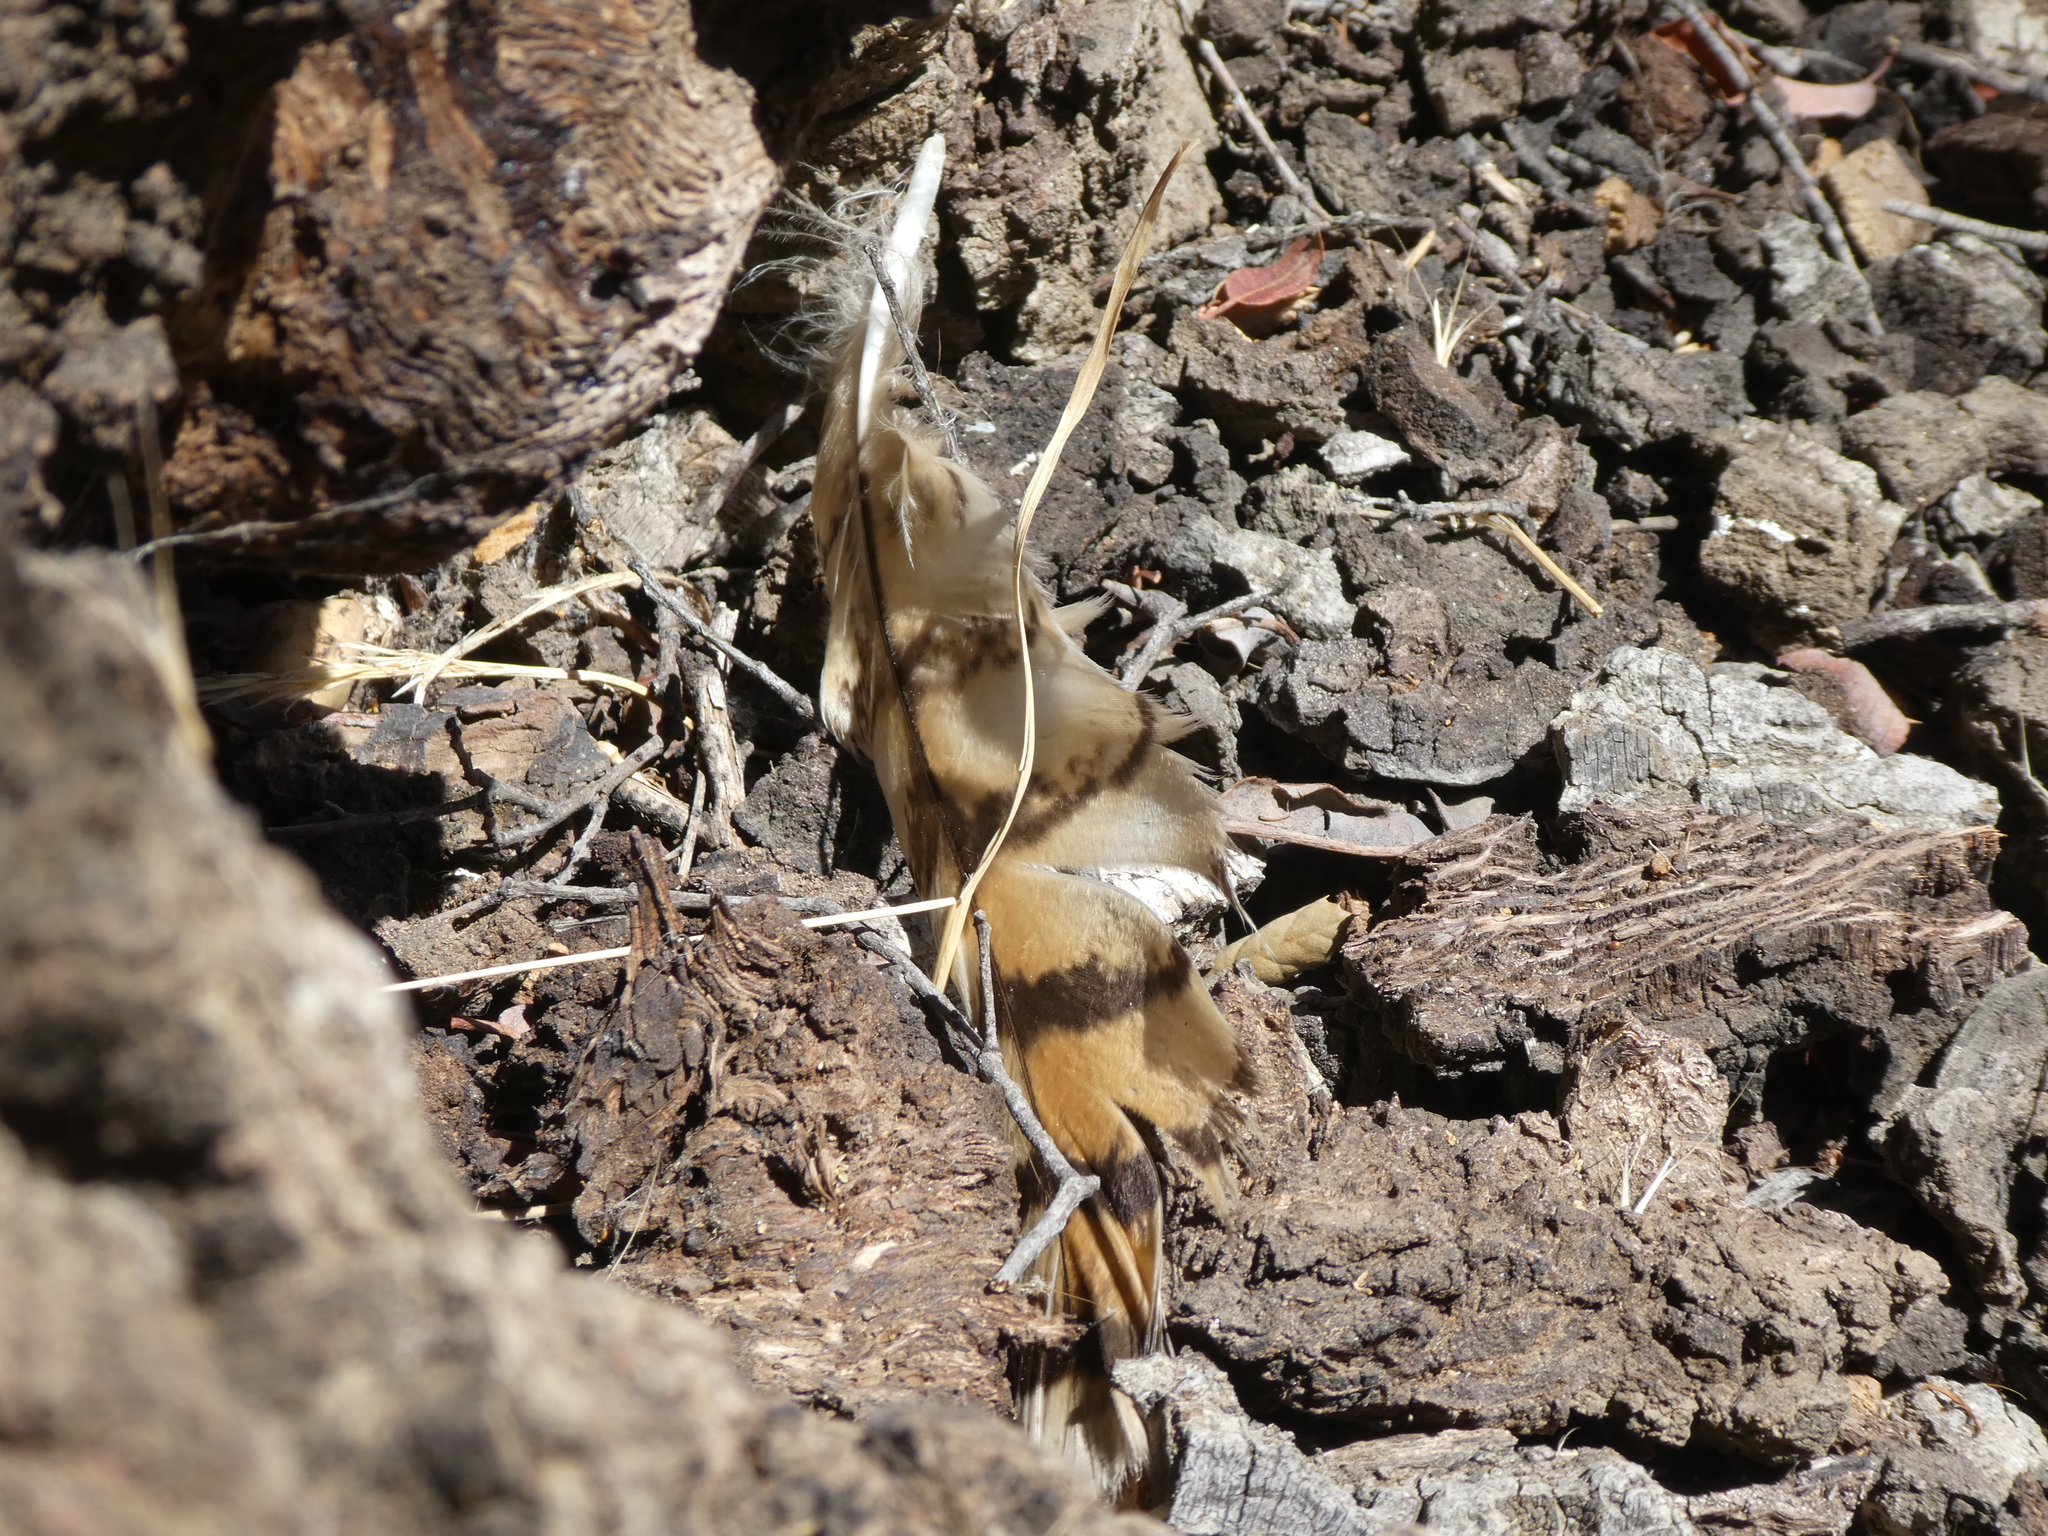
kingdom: Animalia
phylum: Chordata
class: Aves
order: Strigiformes
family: Strigidae
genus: Bubo
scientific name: Bubo virginianus
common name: Great horned owl
